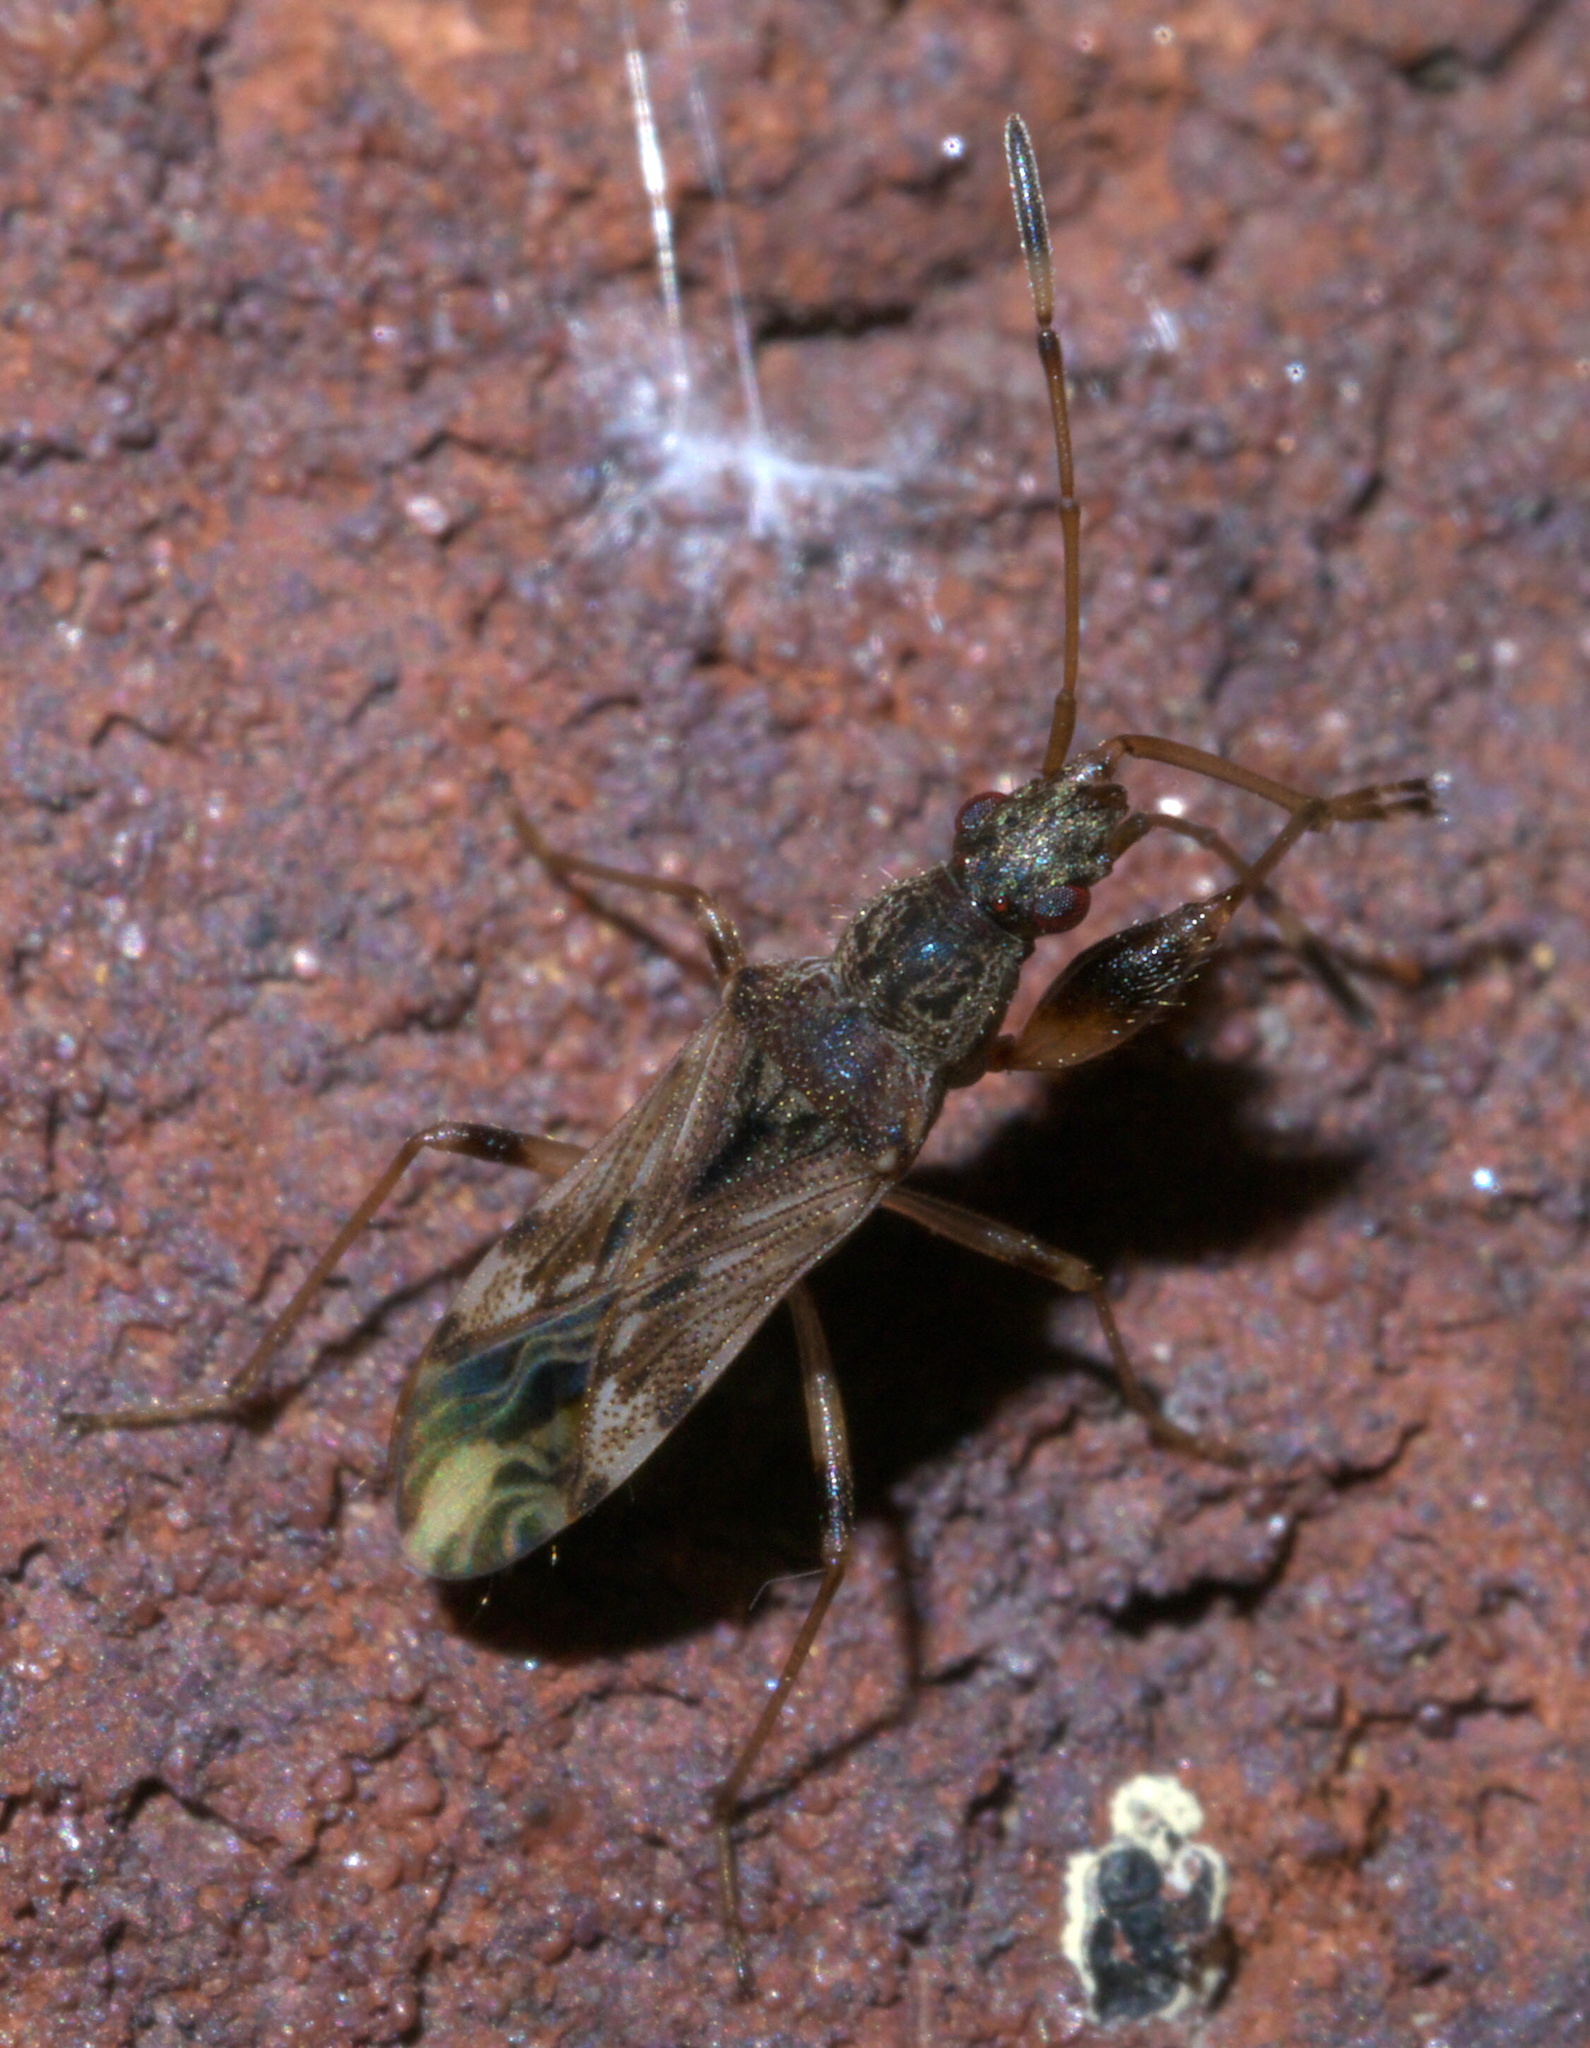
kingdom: Animalia
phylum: Arthropoda
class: Insecta
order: Hemiptera
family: Rhyparochromidae
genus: Neopamera
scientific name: Neopamera albocincta
